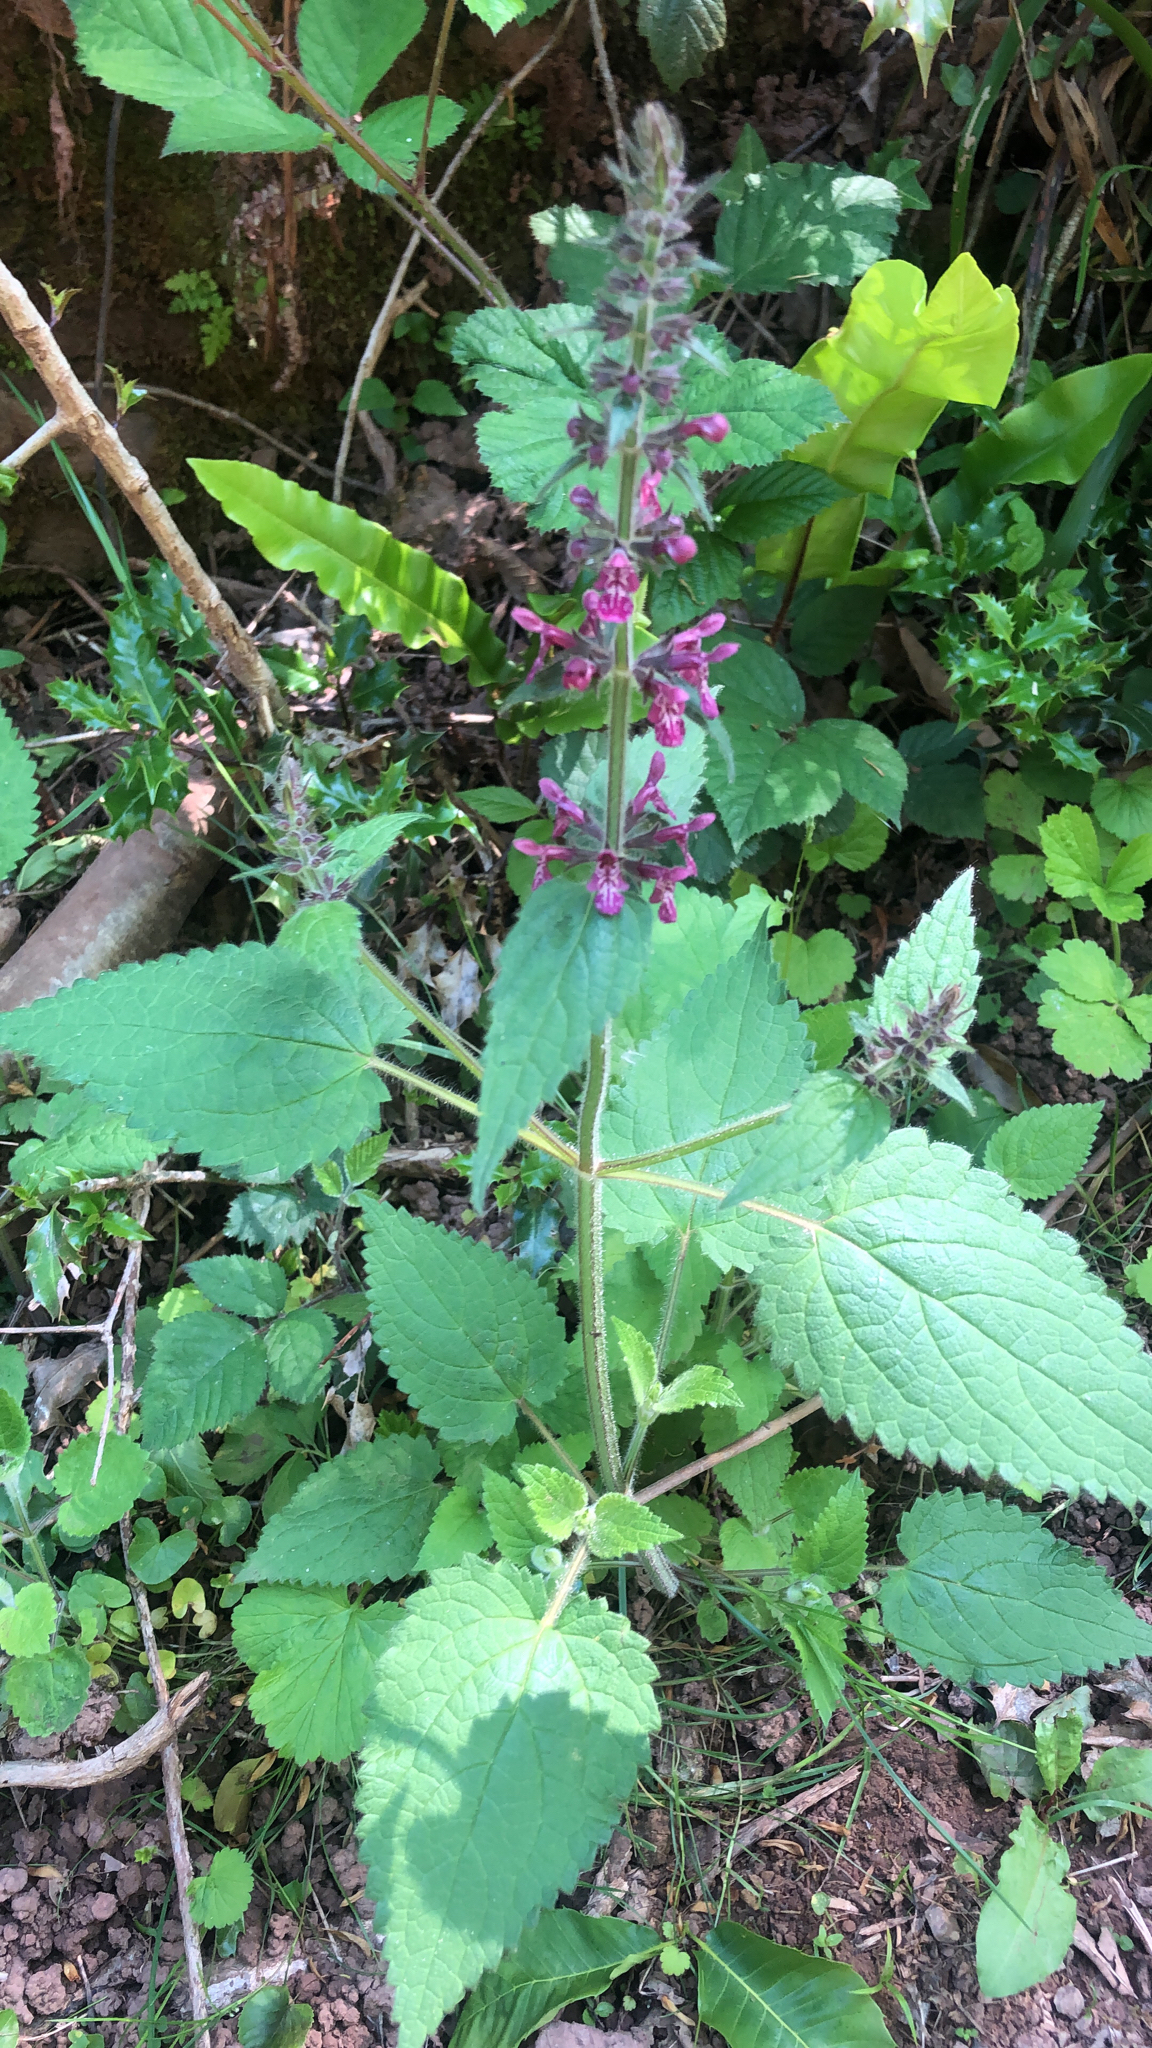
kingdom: Plantae
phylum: Tracheophyta
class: Magnoliopsida
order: Lamiales
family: Lamiaceae
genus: Stachys
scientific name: Stachys sylvatica
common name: Hedge woundwort
